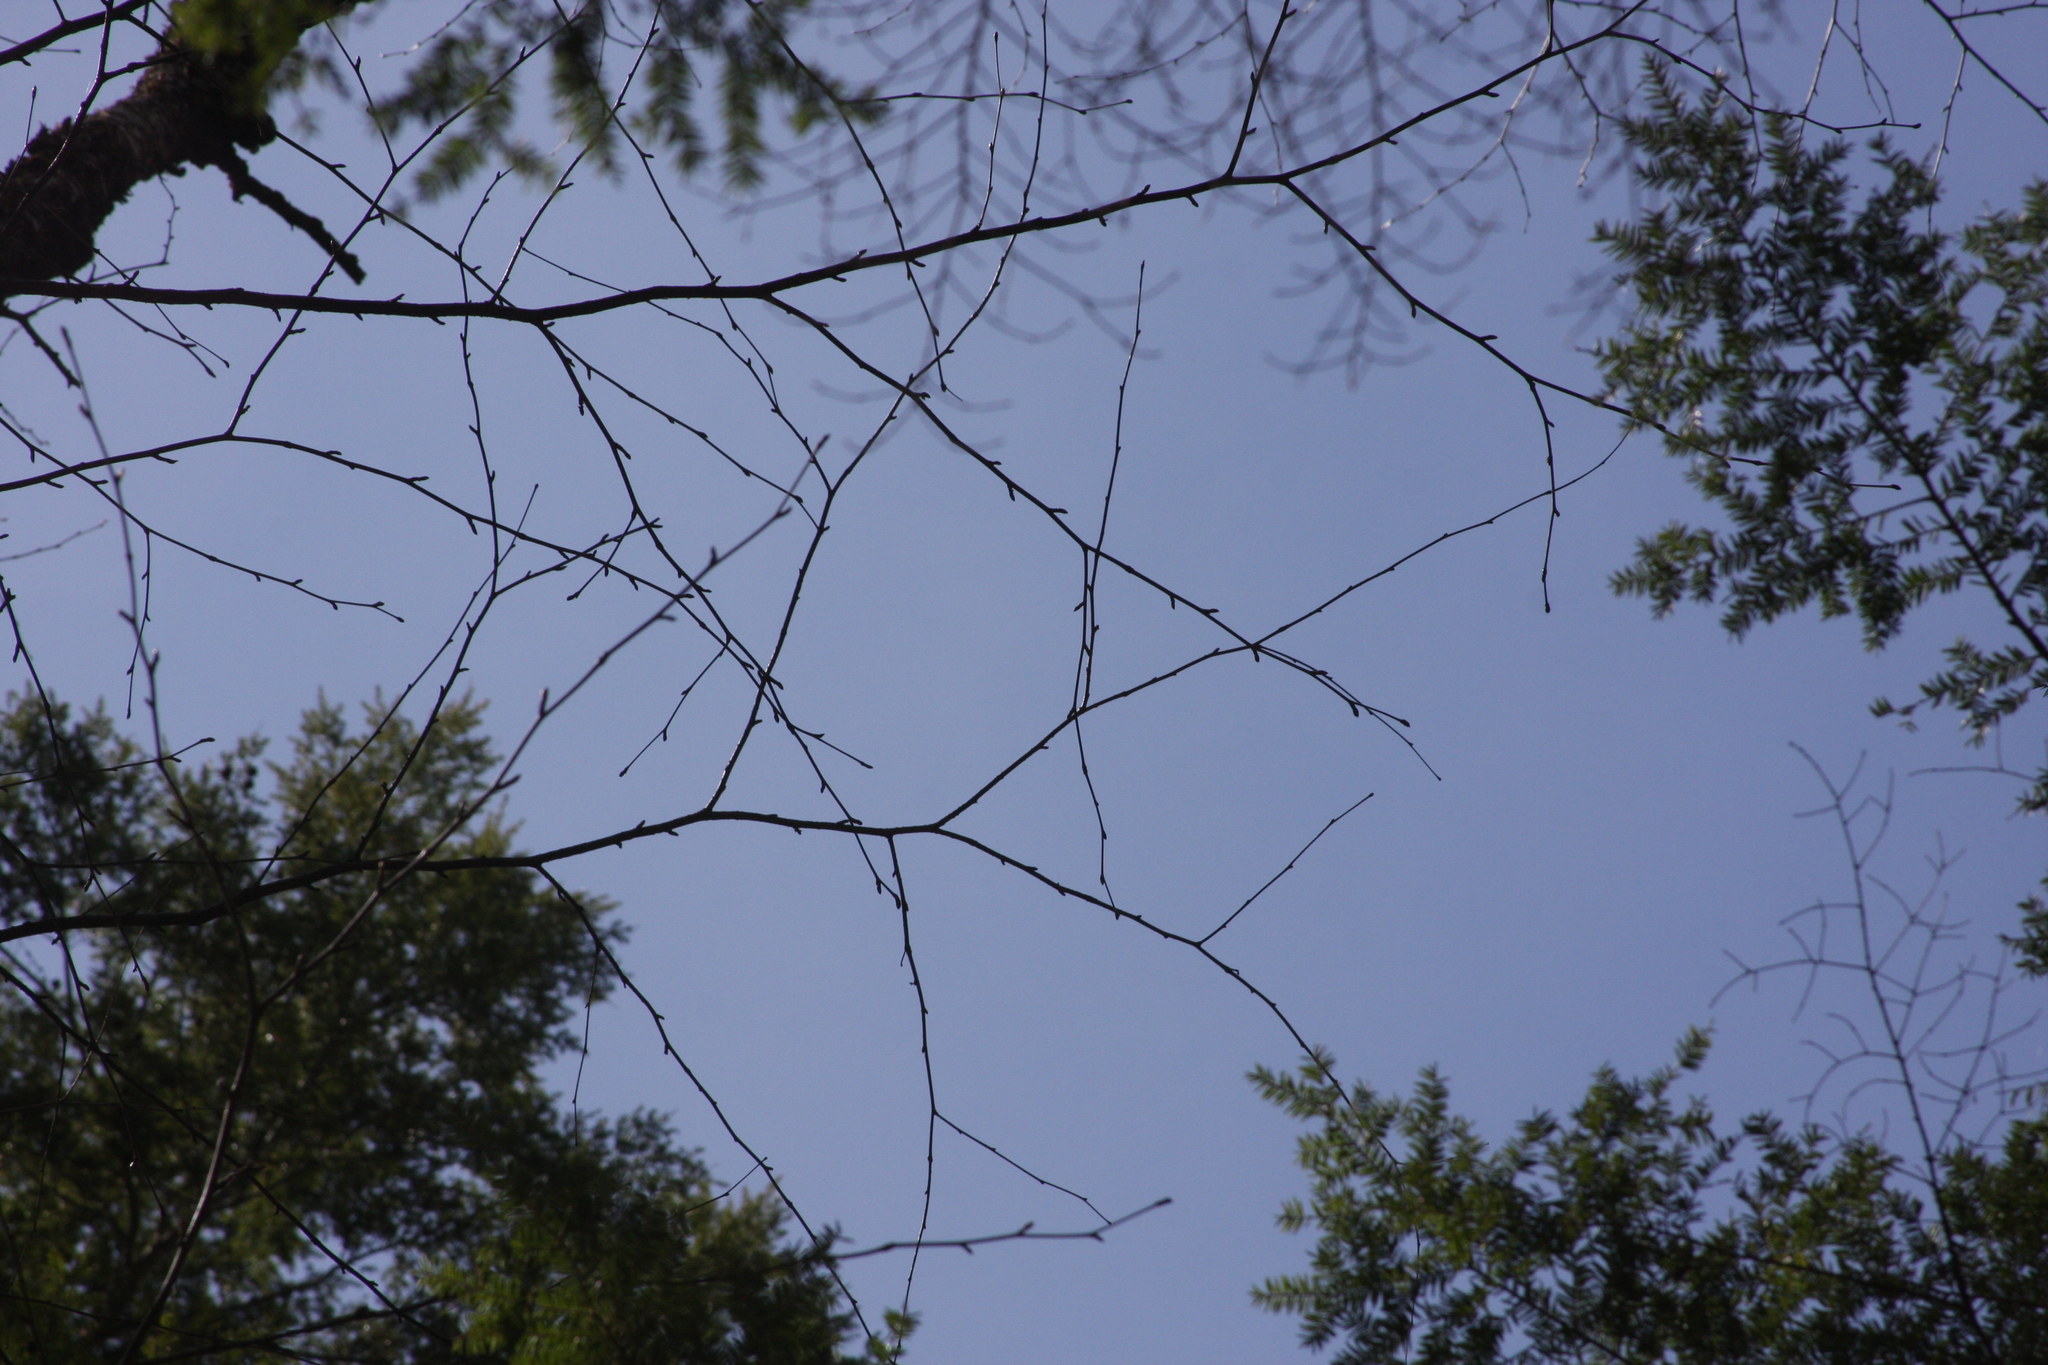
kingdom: Plantae
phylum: Tracheophyta
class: Magnoliopsida
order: Fagales
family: Betulaceae
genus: Betula
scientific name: Betula alleghaniensis
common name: Yellow birch
